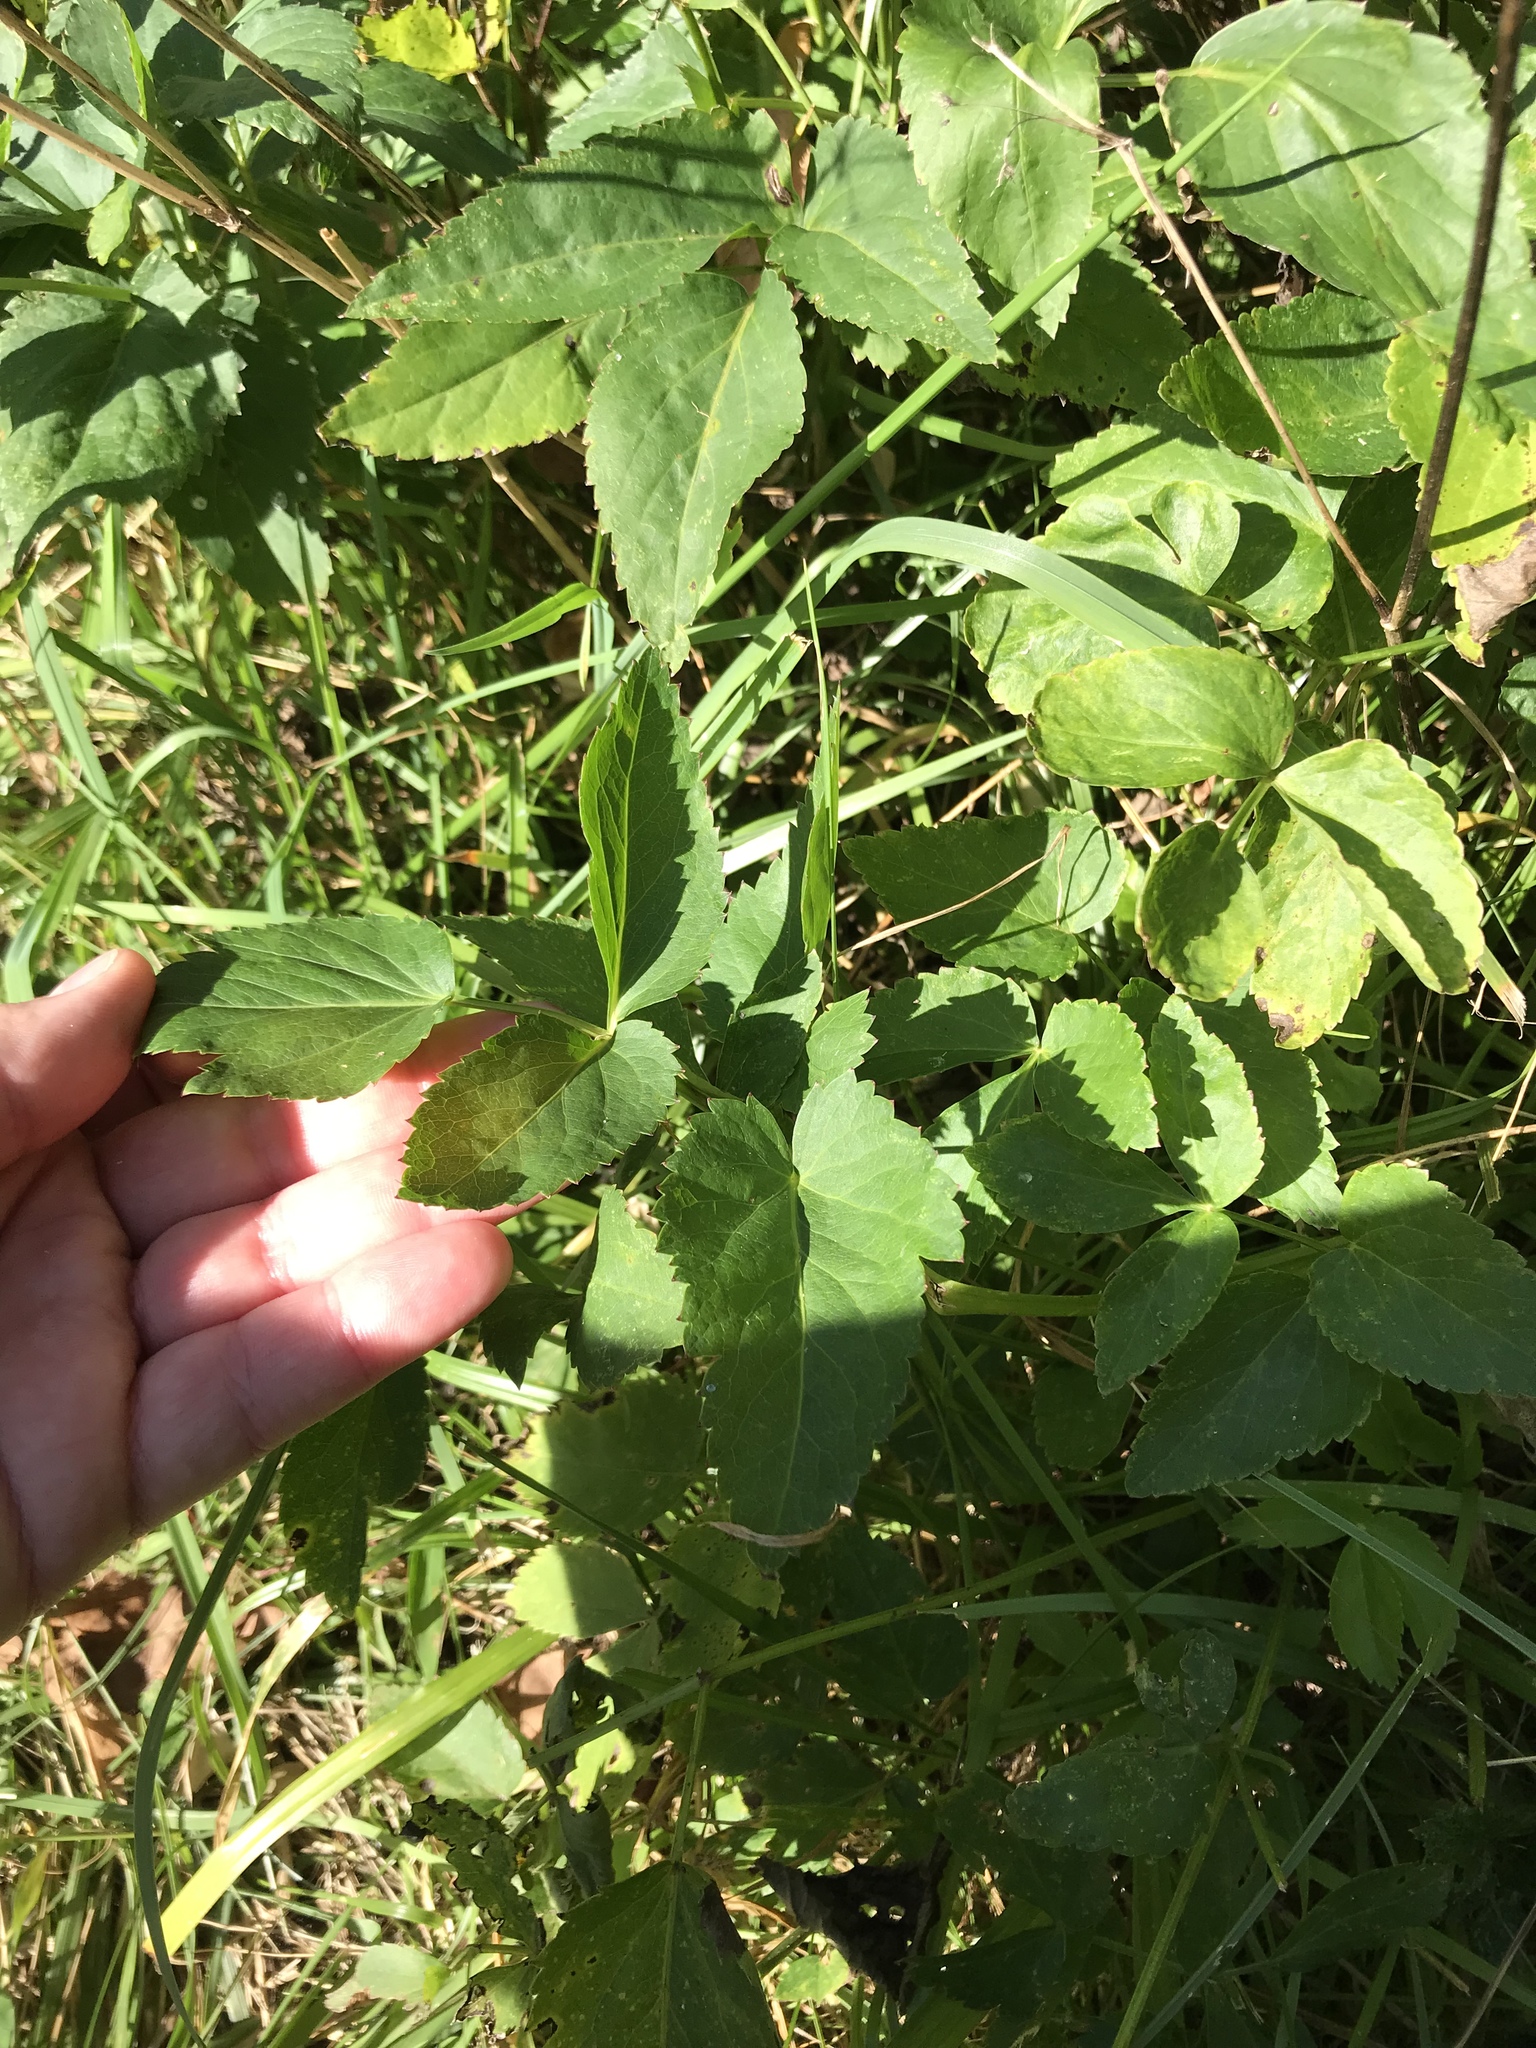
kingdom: Plantae
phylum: Tracheophyta
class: Magnoliopsida
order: Apiales
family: Apiaceae
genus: Zizia
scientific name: Zizia aurea
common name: Golden alexanders
